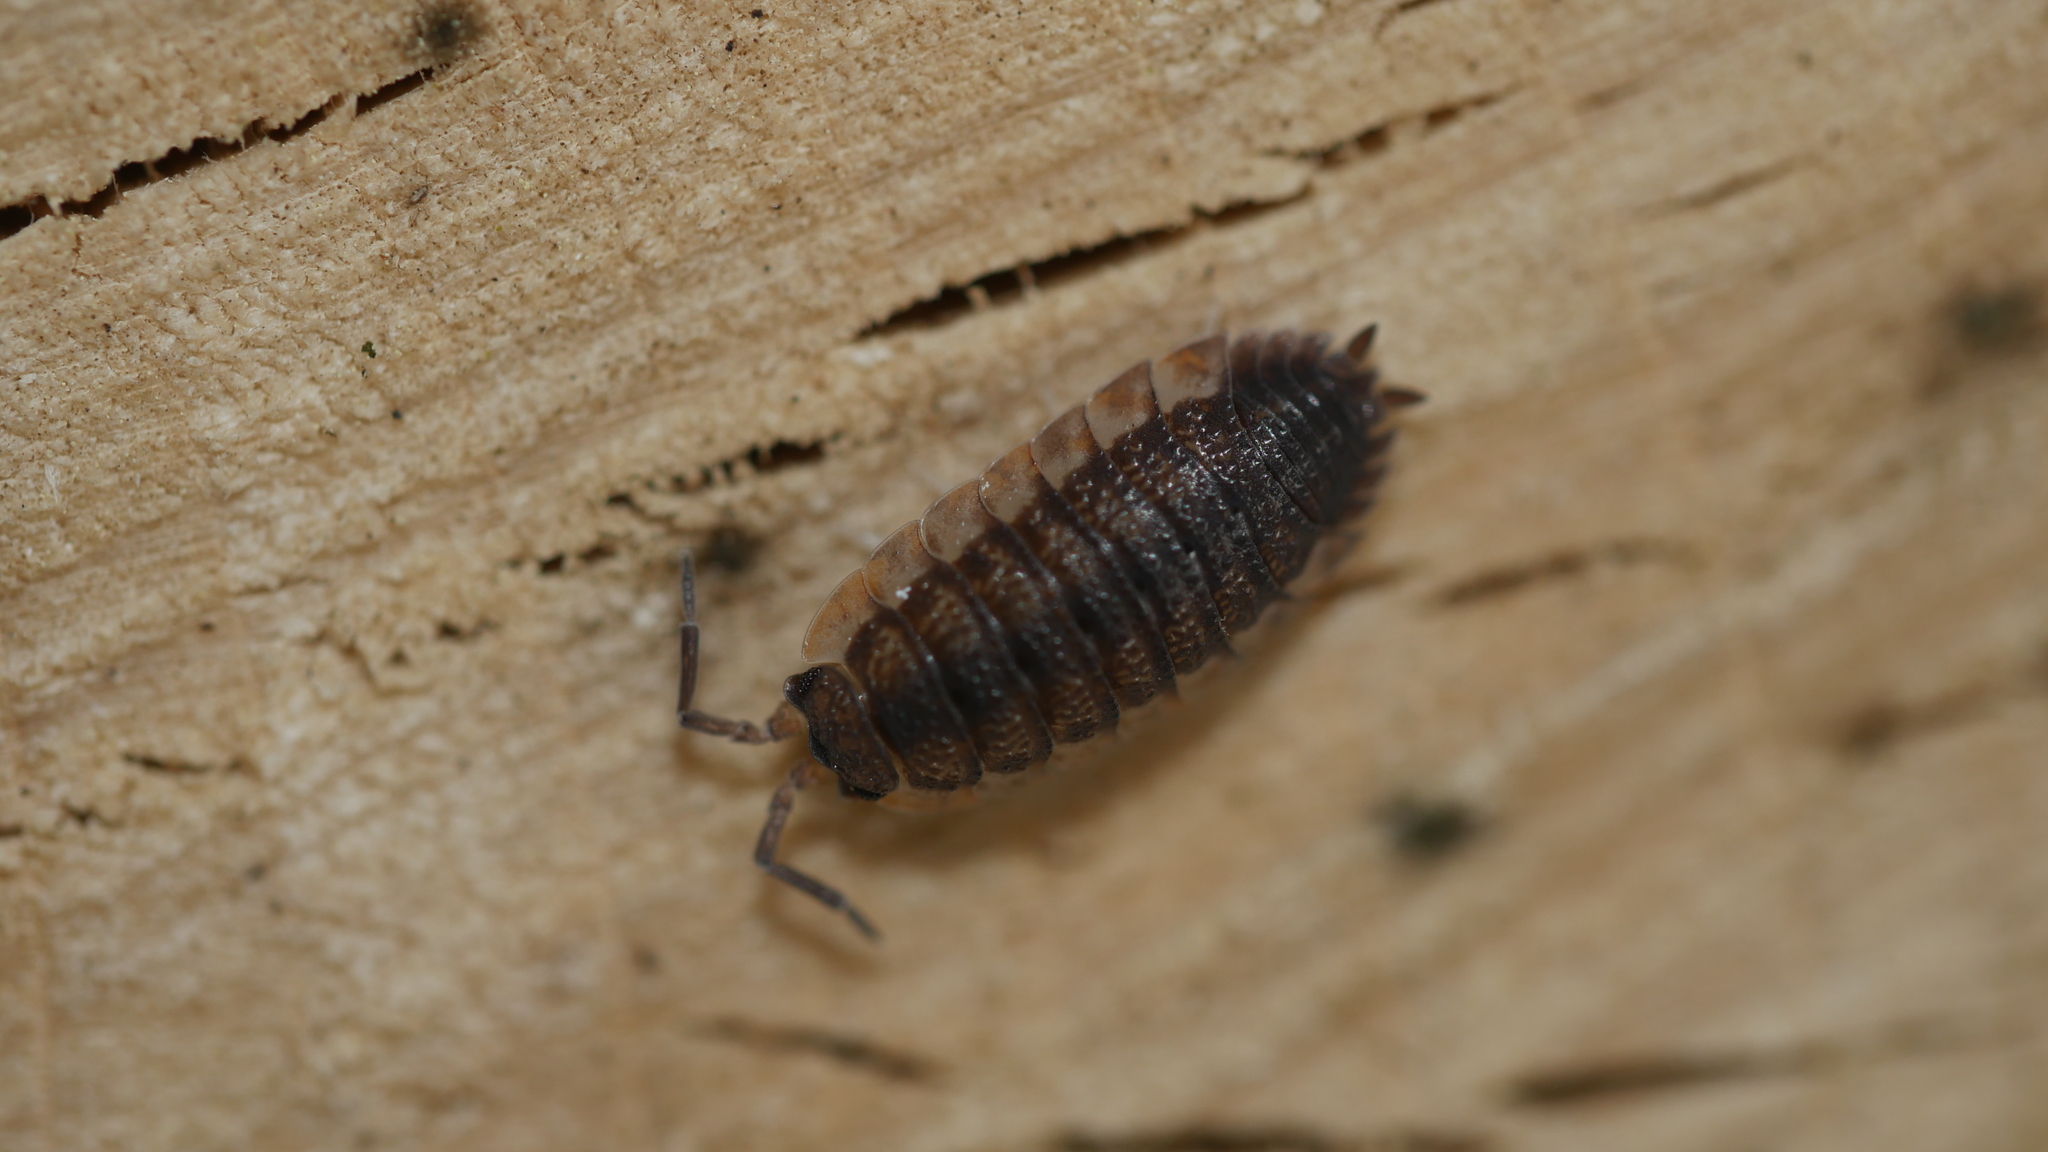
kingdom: Animalia
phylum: Arthropoda
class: Malacostraca
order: Isopoda
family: Porcellionidae
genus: Porcellio
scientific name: Porcellio scaber
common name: Common rough woodlouse
